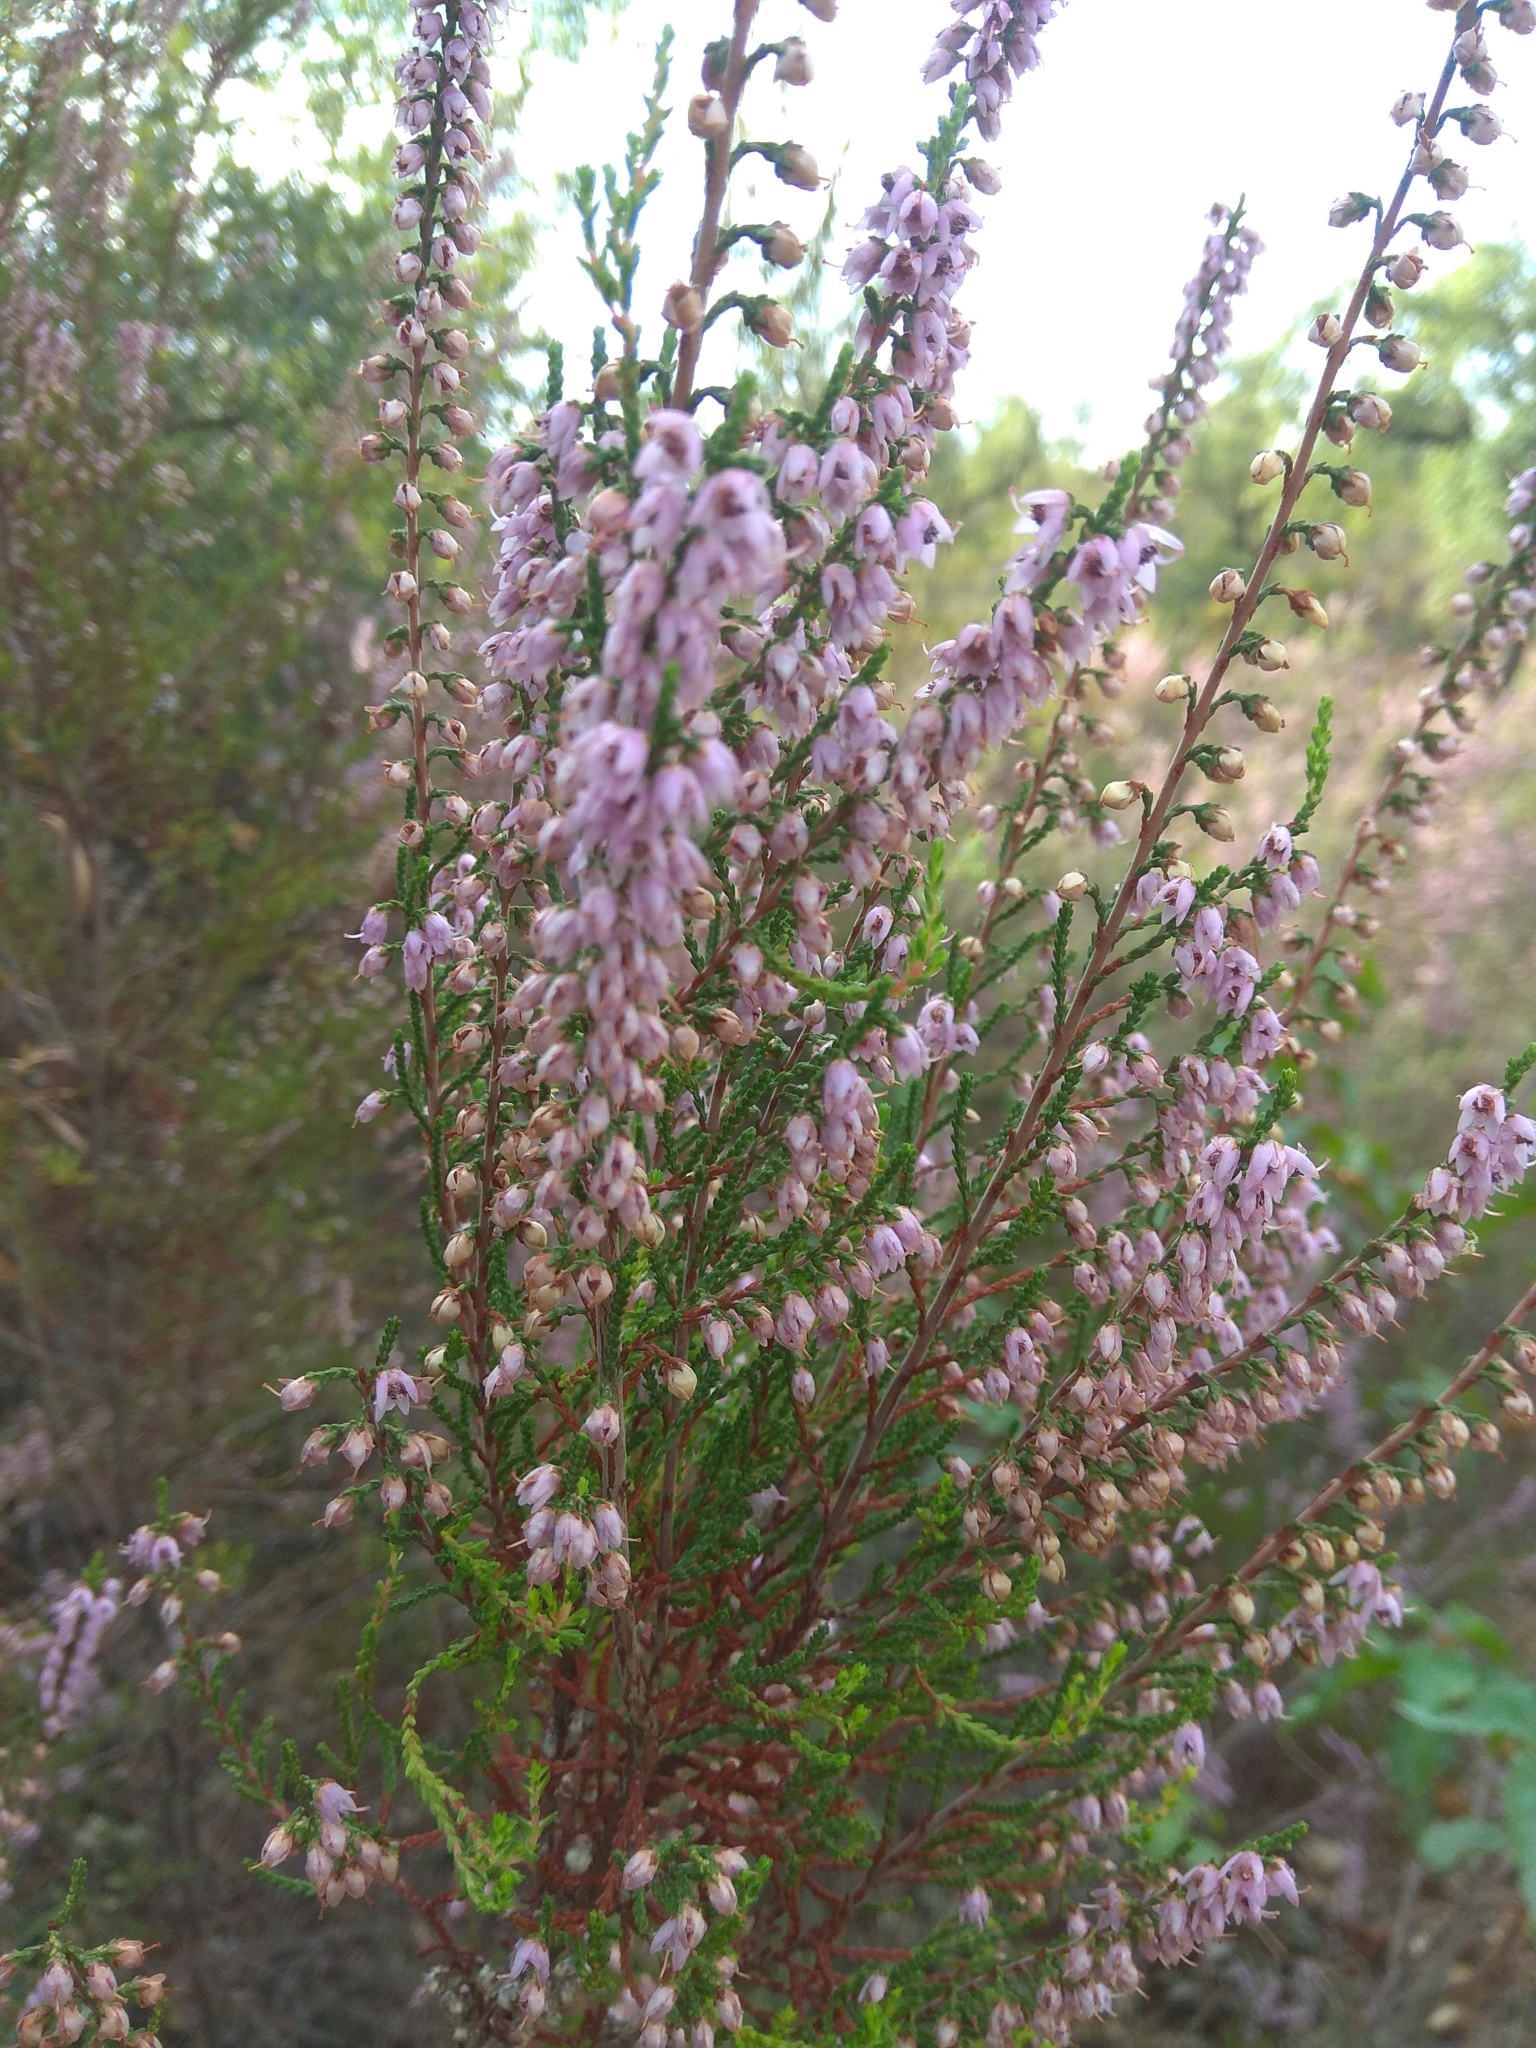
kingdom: Plantae
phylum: Tracheophyta
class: Magnoliopsida
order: Ericales
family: Ericaceae
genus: Calluna
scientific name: Calluna vulgaris
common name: Heather
